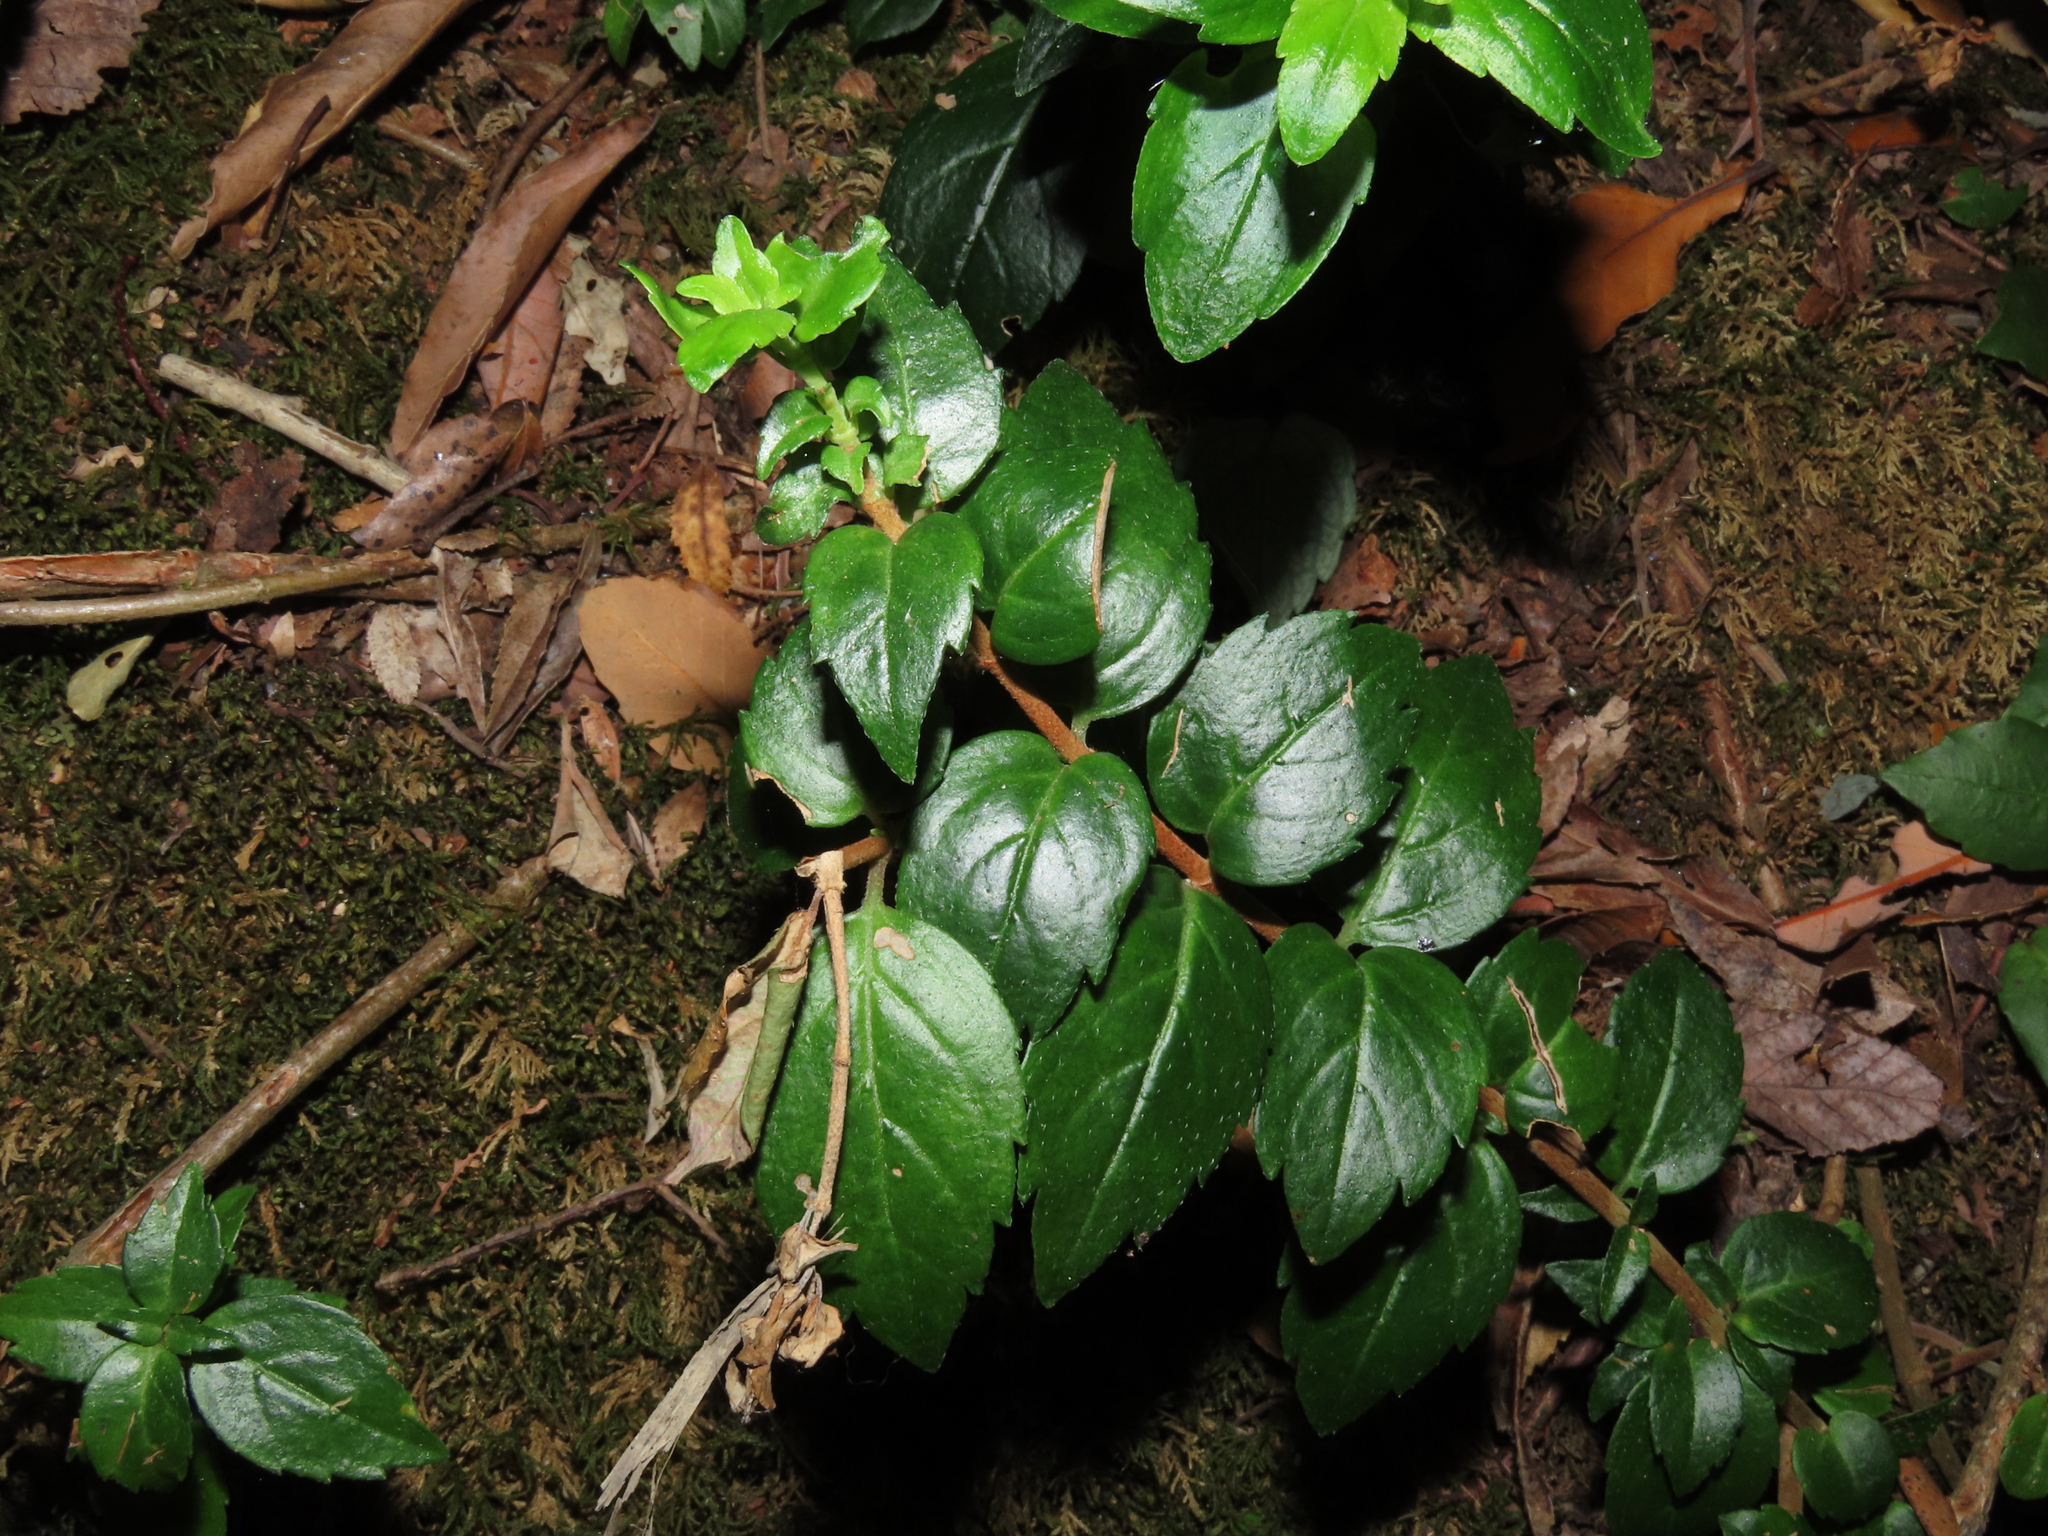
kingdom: Plantae
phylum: Tracheophyta
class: Magnoliopsida
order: Lamiales
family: Gesneriaceae
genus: Mitraria
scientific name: Mitraria coccinea
